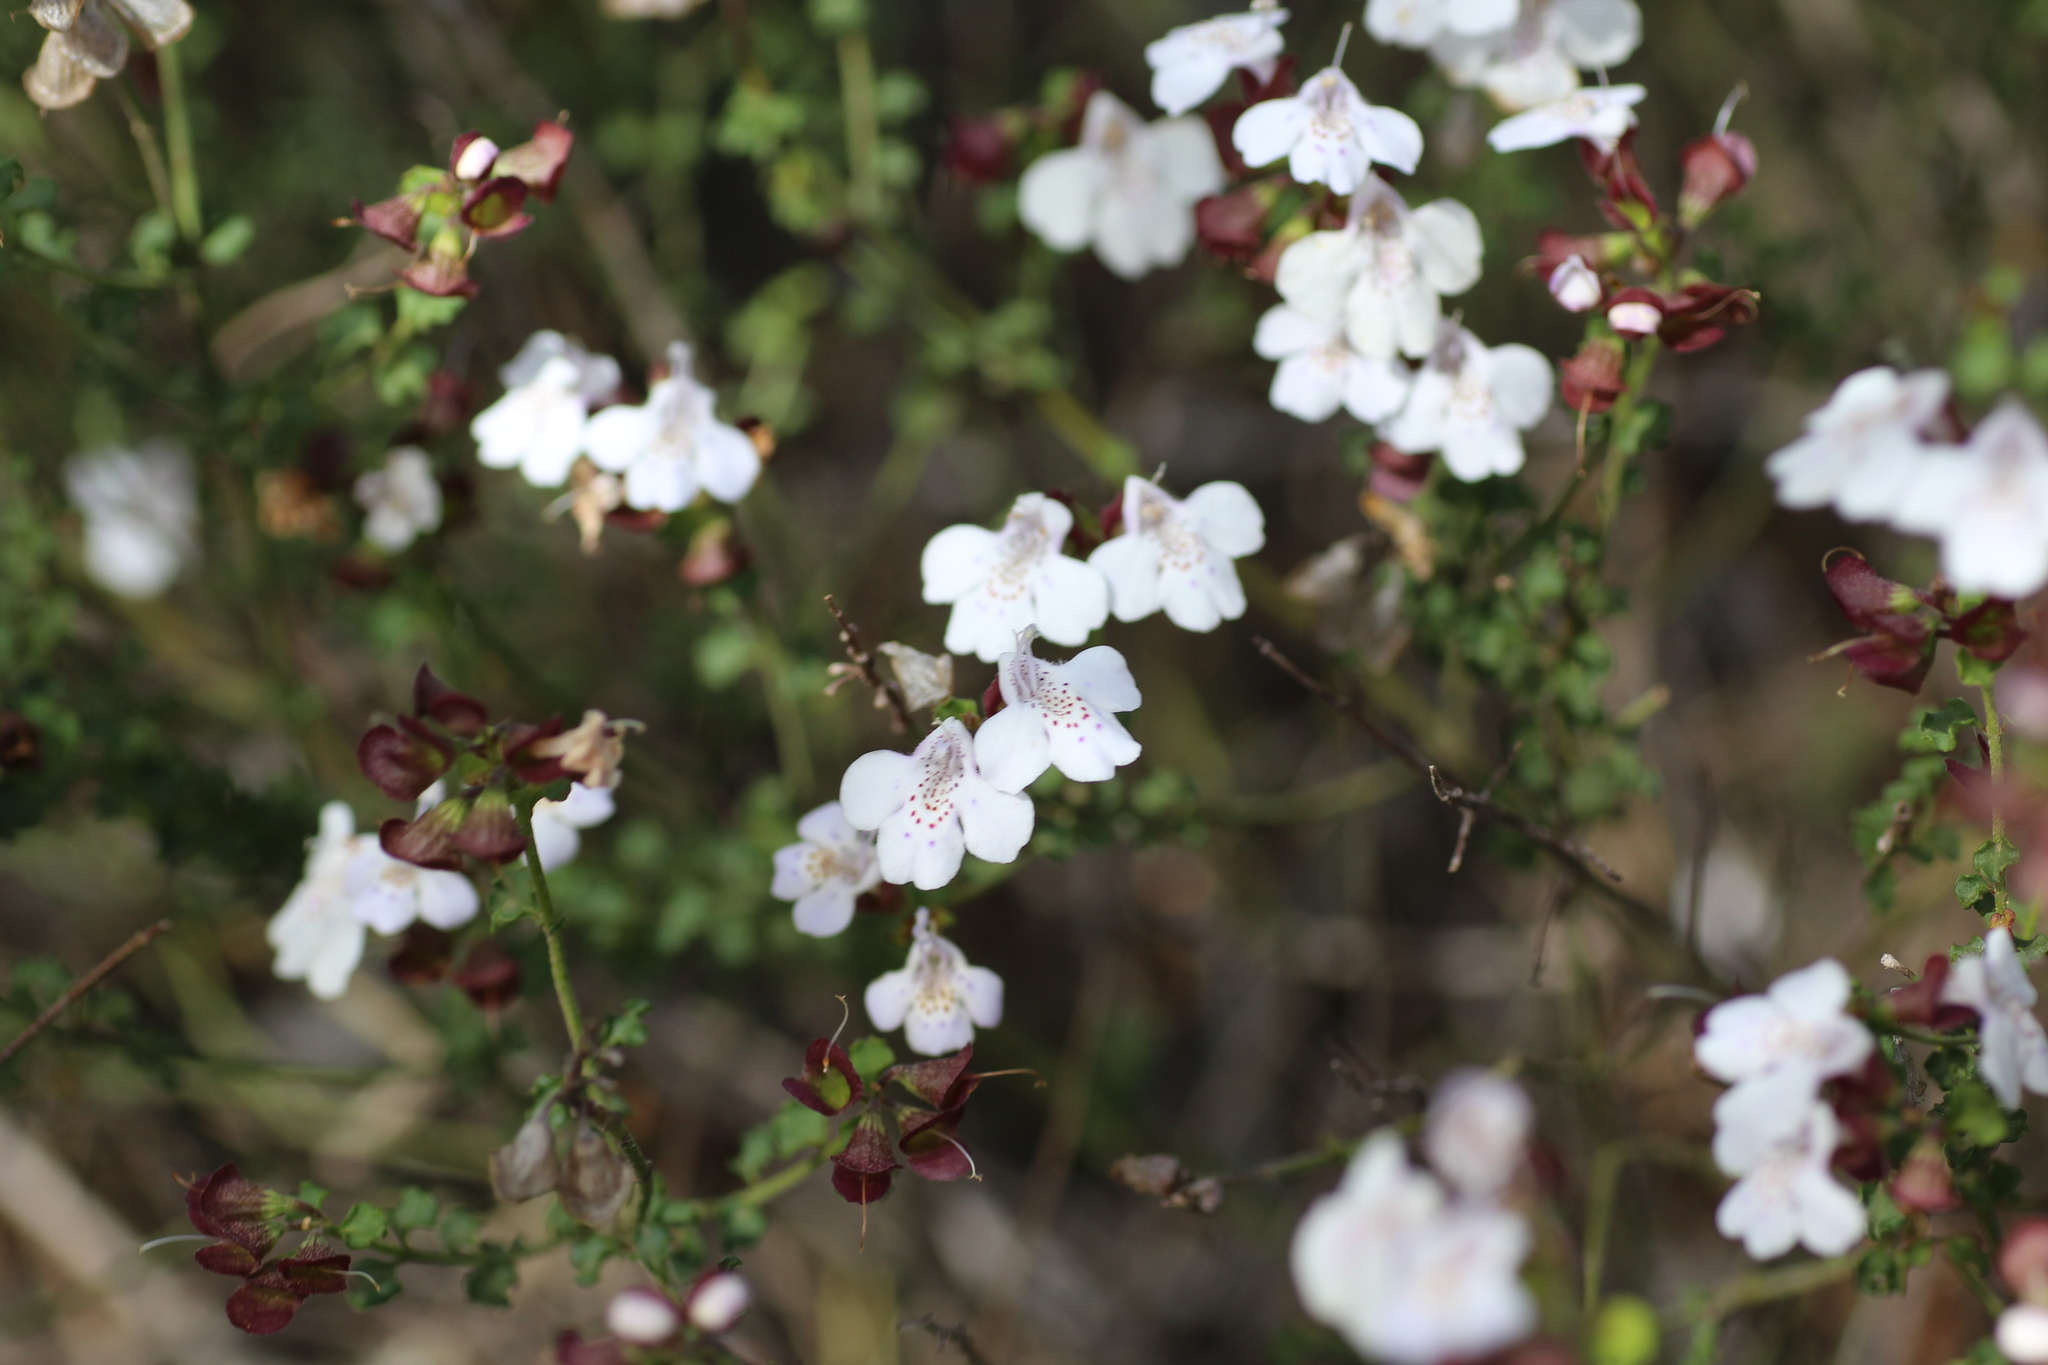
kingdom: Plantae
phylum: Tracheophyta
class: Magnoliopsida
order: Lamiales
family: Lamiaceae
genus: Prostanthera
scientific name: Prostanthera prostantheroides
